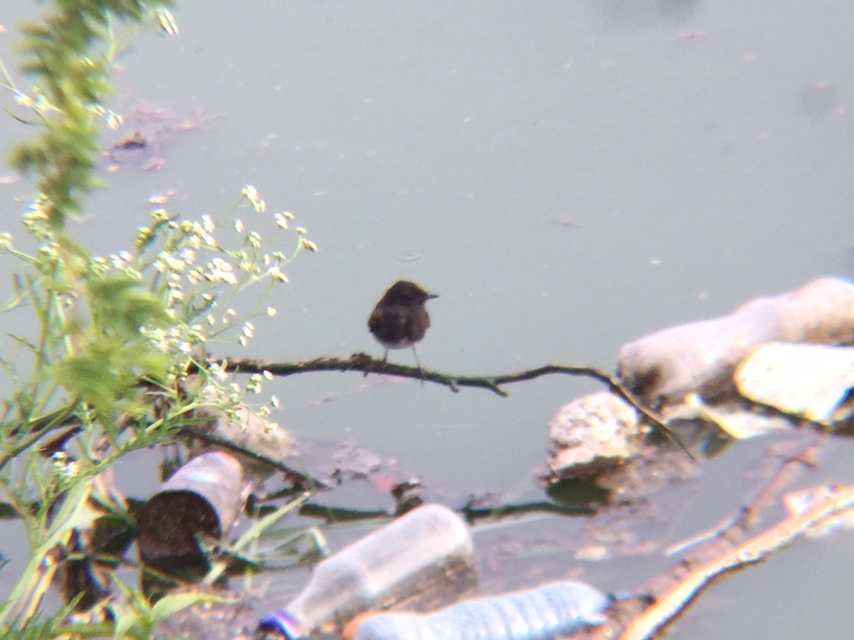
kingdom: Animalia
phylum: Chordata
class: Aves
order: Passeriformes
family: Tyrannidae
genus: Sayornis
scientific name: Sayornis nigricans
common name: Black phoebe
